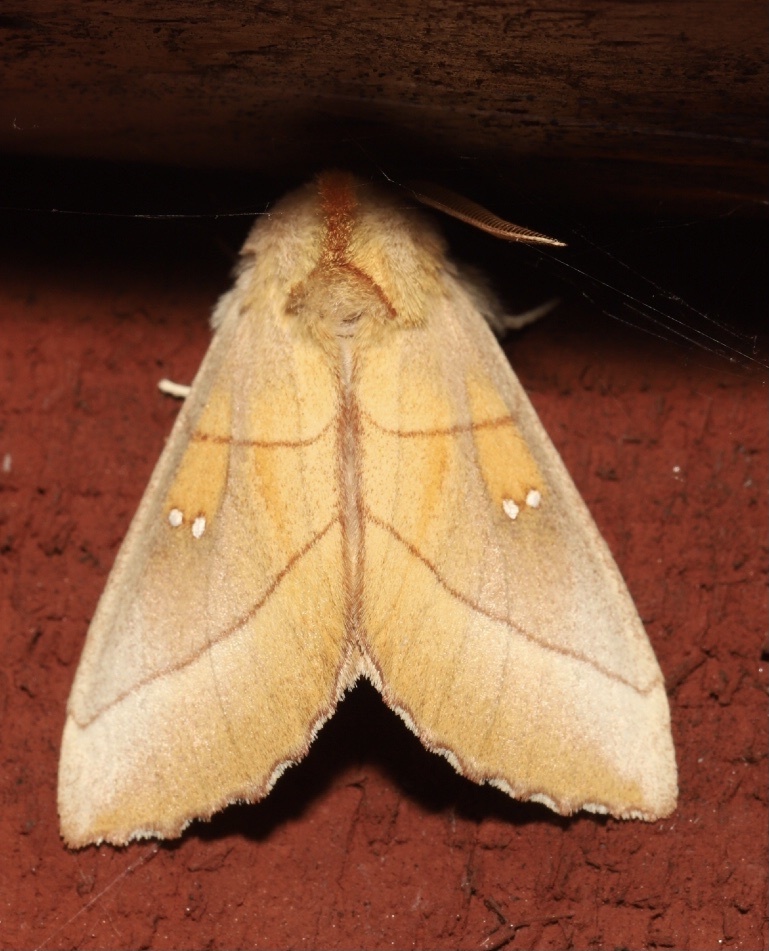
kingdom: Animalia
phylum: Arthropoda
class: Insecta
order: Lepidoptera
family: Notodontidae
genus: Nadata
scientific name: Nadata gibbosa
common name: White-dotted prominent
